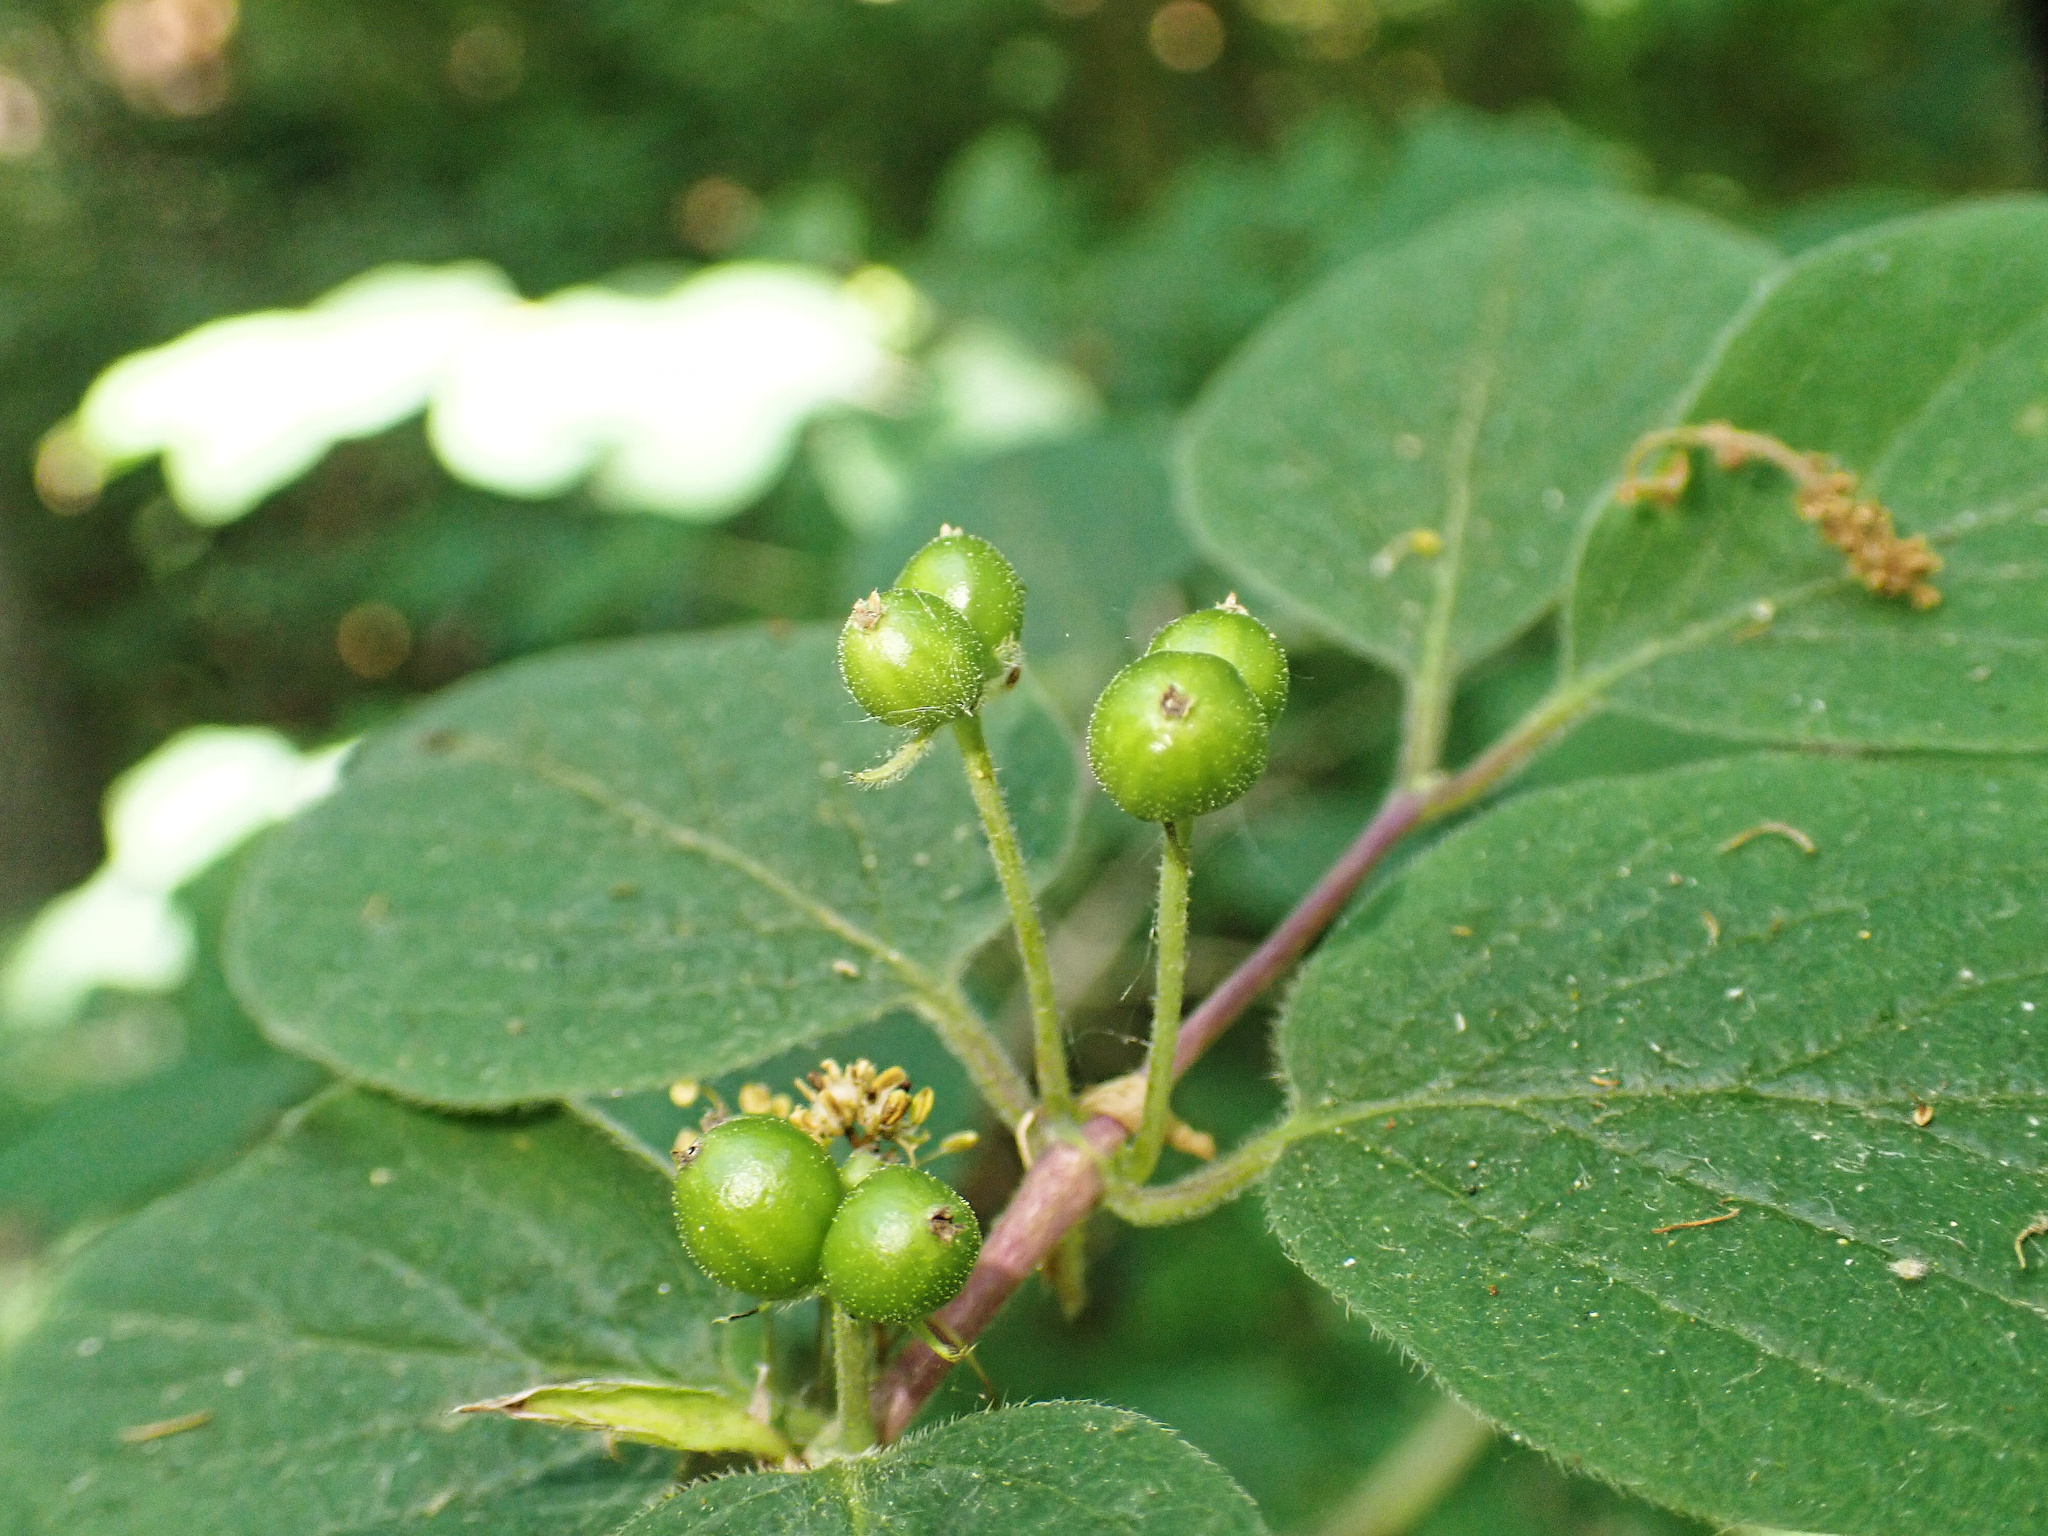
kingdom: Plantae
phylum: Tracheophyta
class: Magnoliopsida
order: Dipsacales
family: Caprifoliaceae
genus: Lonicera
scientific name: Lonicera xylosteum
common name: Fly honeysuckle
